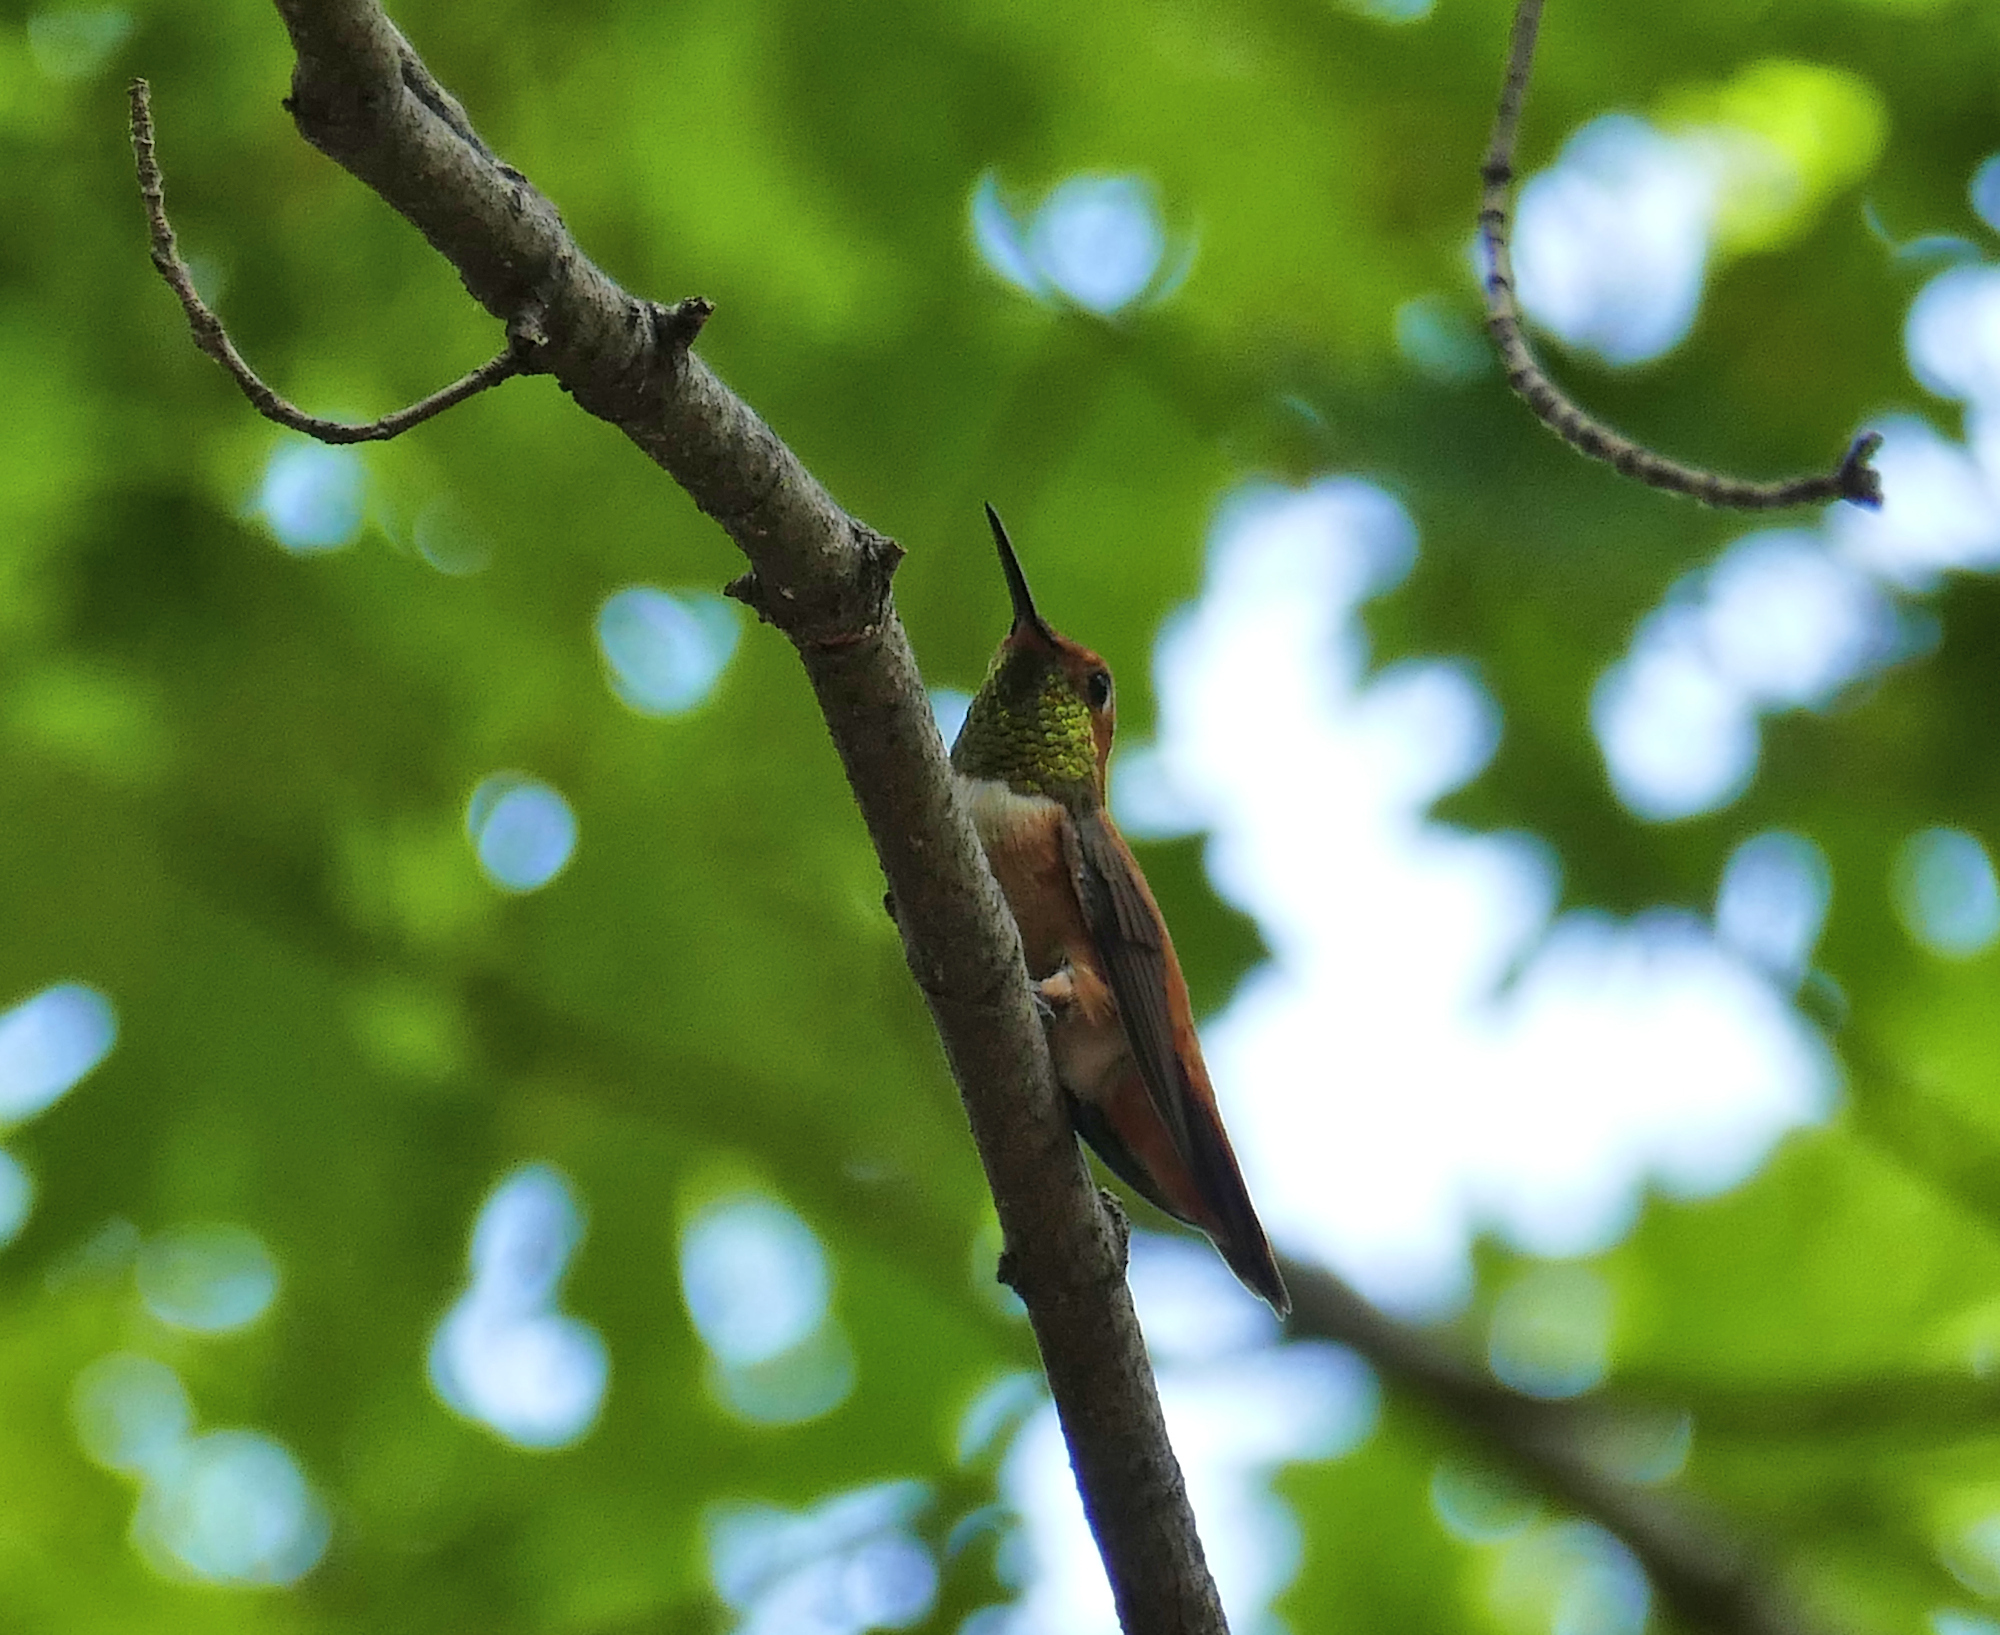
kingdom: Animalia
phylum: Chordata
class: Aves
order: Apodiformes
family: Trochilidae
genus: Selasphorus
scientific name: Selasphorus rufus
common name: Rufous hummingbird
